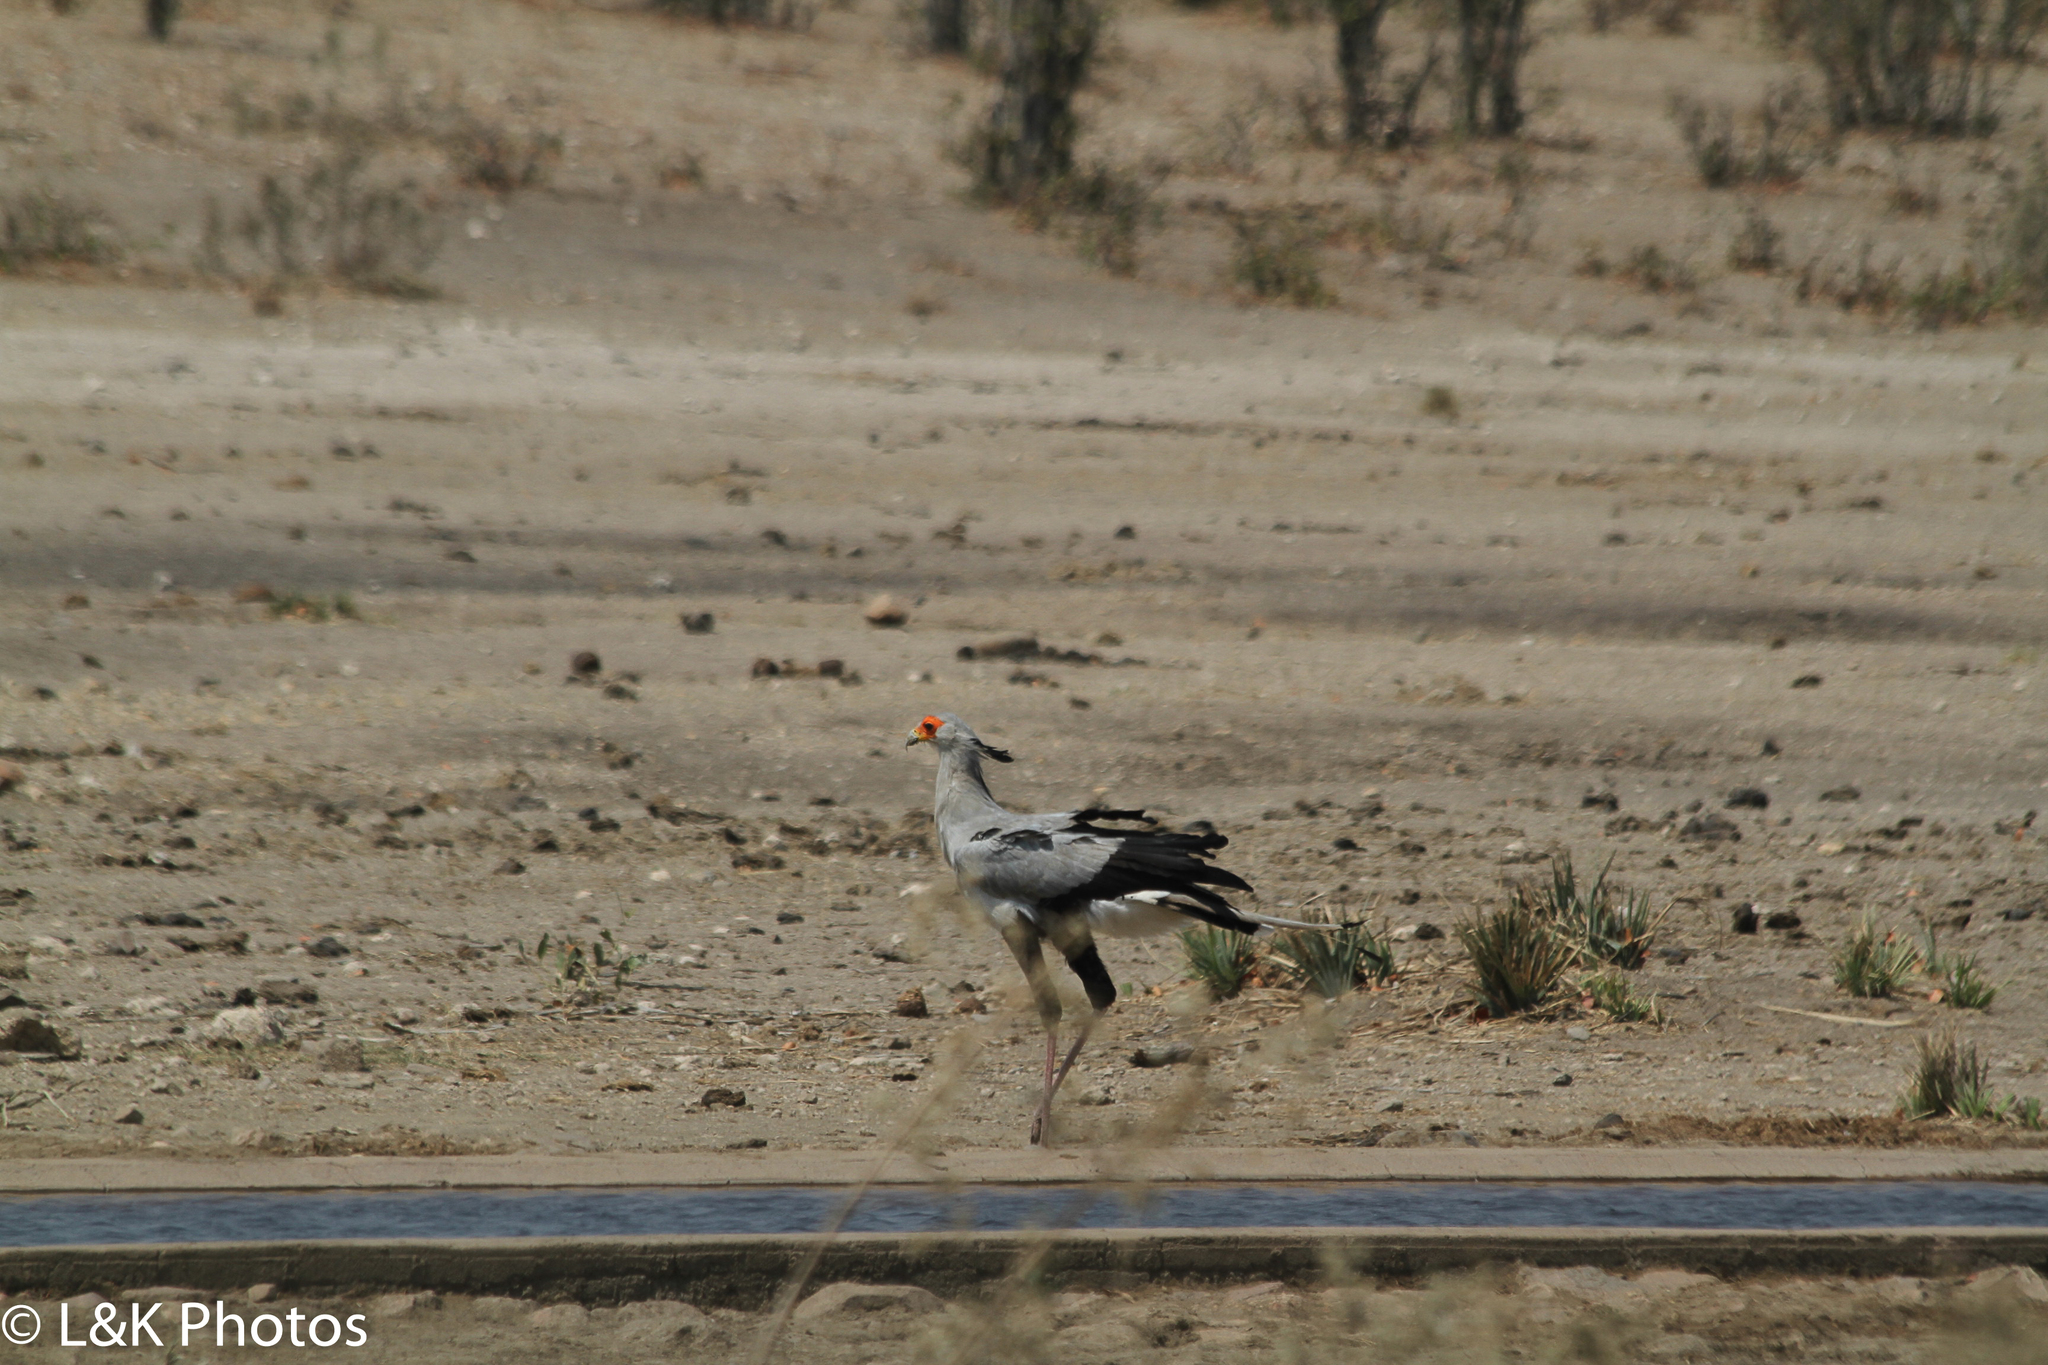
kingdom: Animalia
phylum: Chordata
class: Aves
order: Accipitriformes
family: Sagittariidae
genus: Sagittarius
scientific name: Sagittarius serpentarius
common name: Secretarybird
